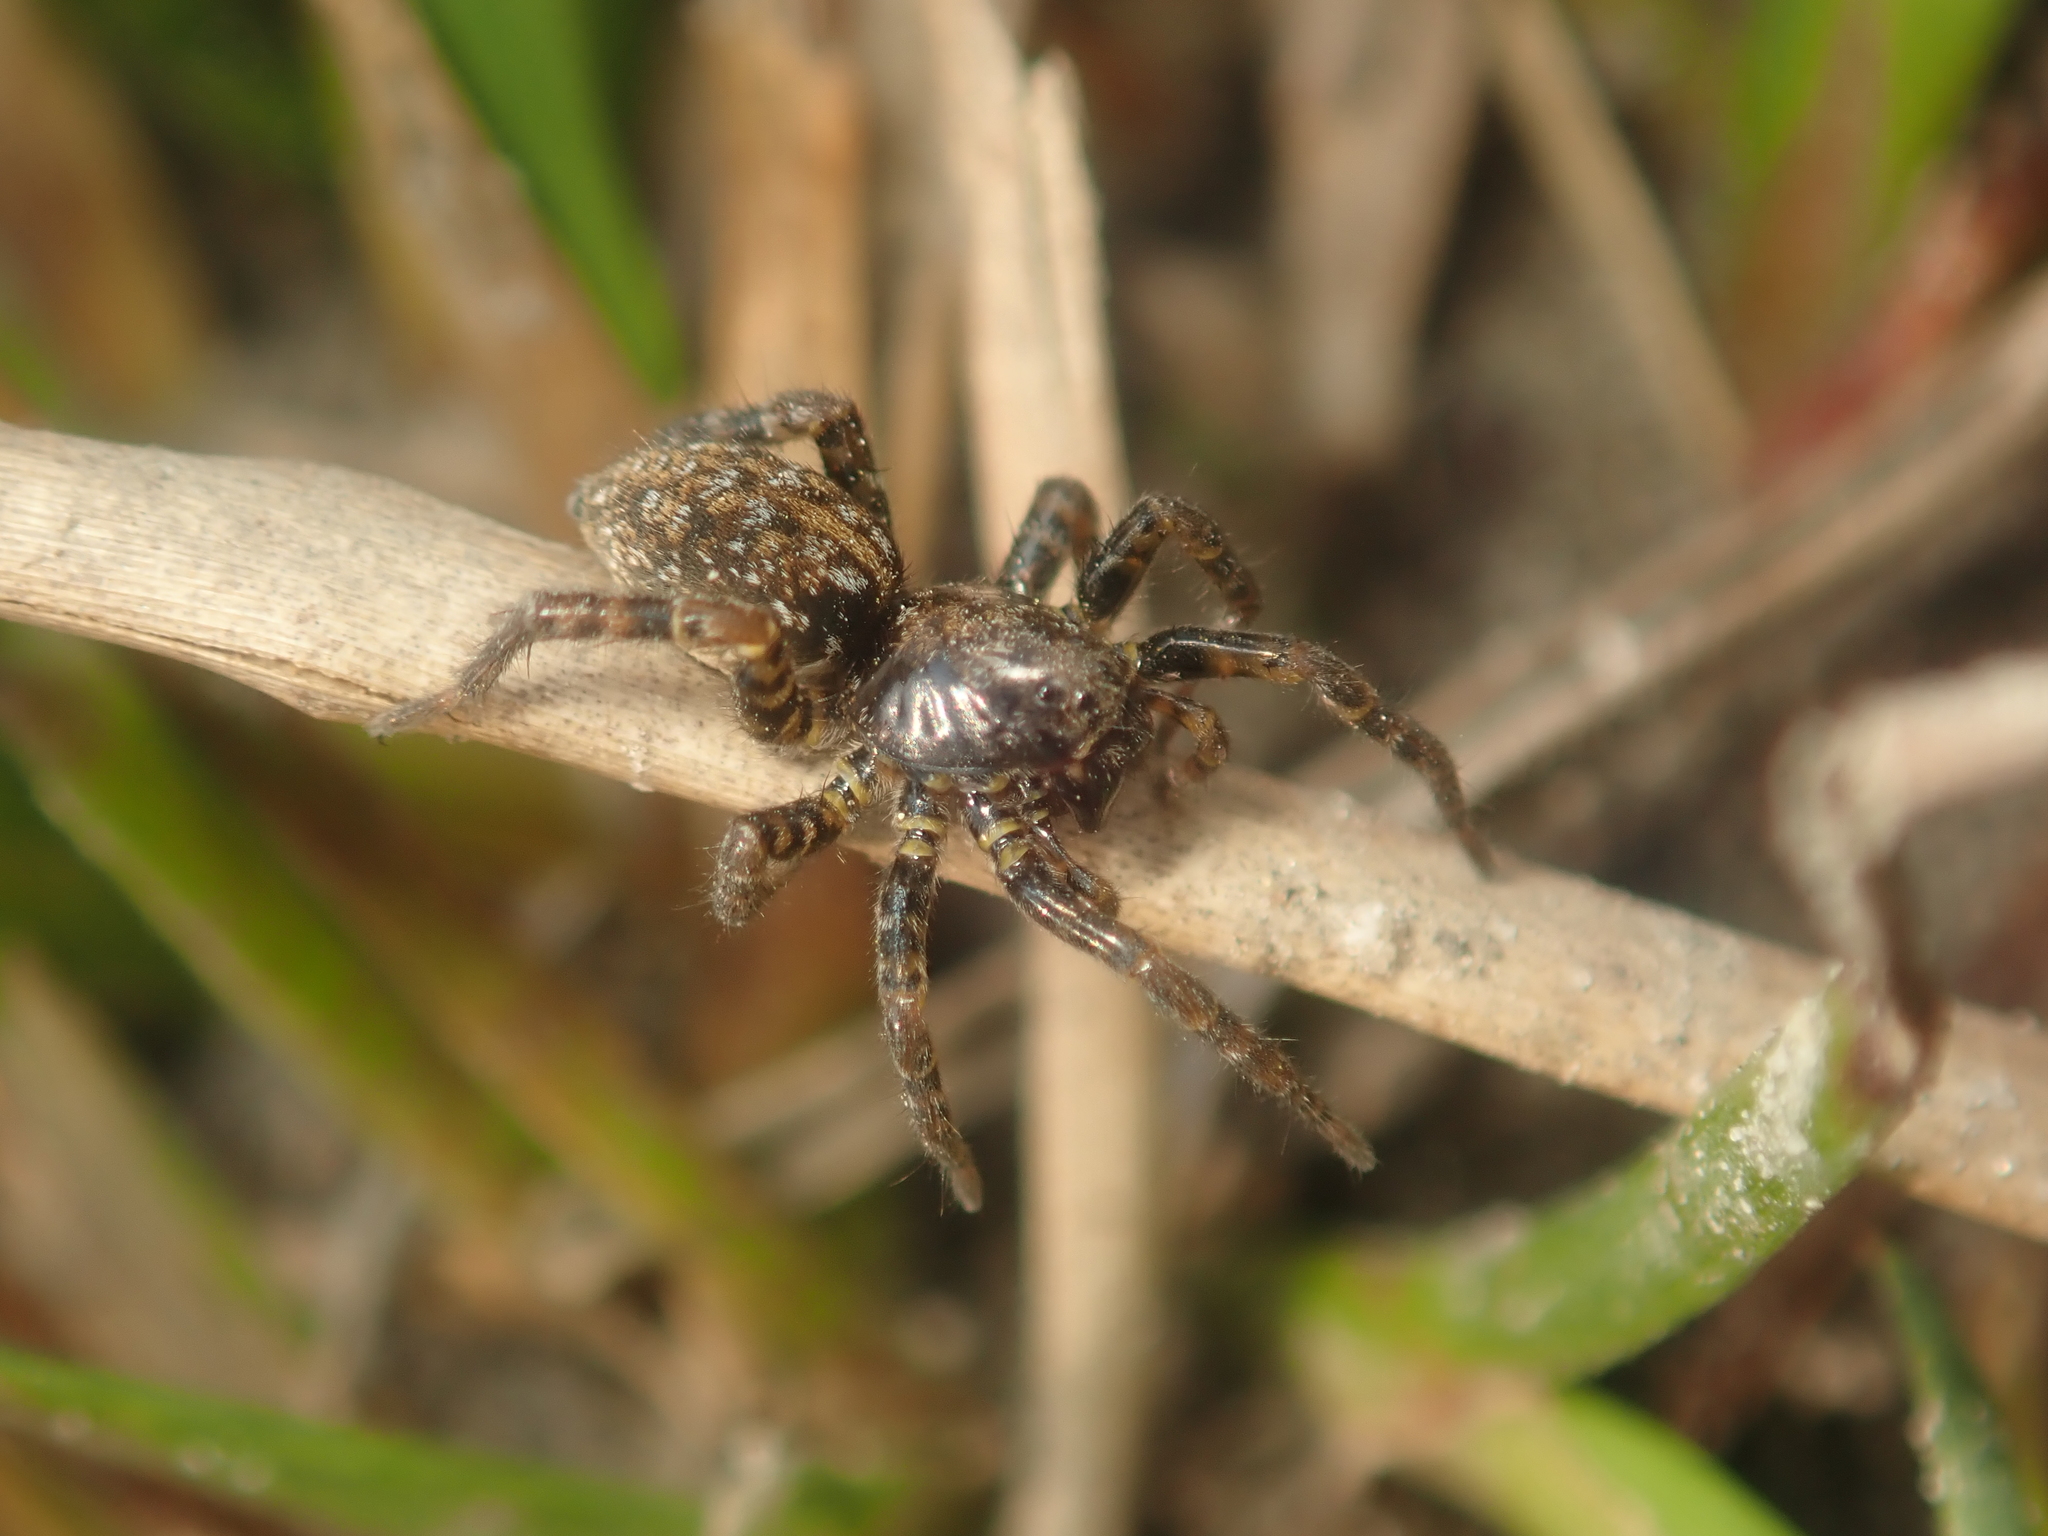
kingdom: Animalia
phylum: Arthropoda
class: Arachnida
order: Araneae
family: Lycosidae
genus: Arctosa
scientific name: Arctosa leopardus
